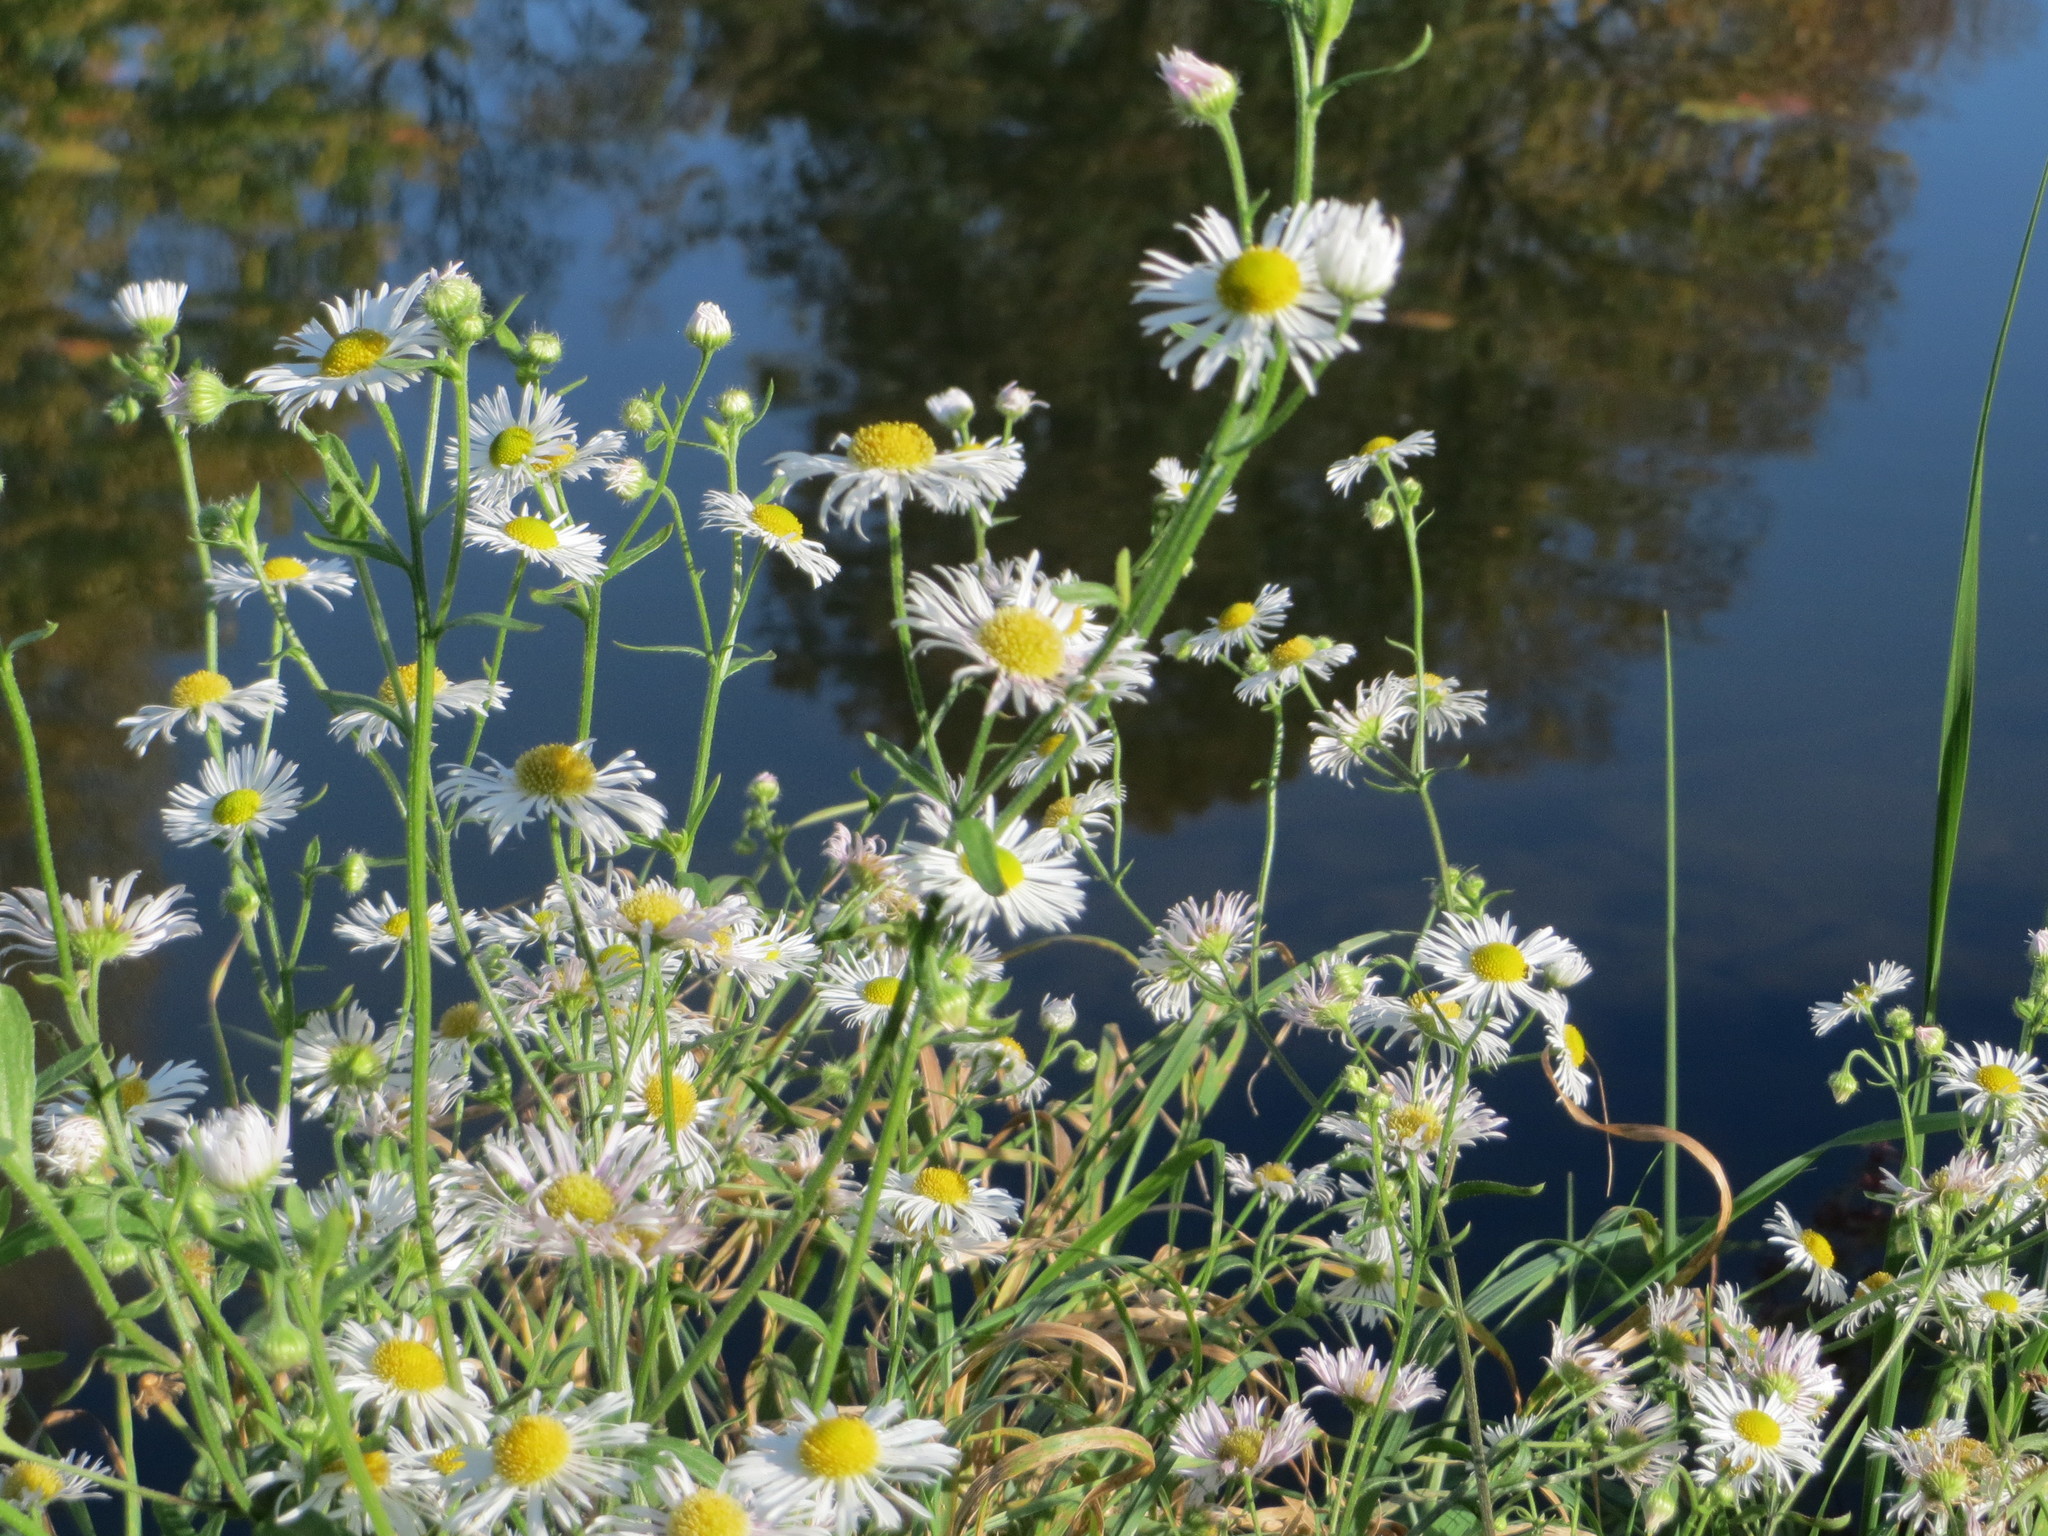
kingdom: Plantae
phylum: Tracheophyta
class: Magnoliopsida
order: Asterales
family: Asteraceae
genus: Erigeron
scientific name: Erigeron annuus
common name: Tall fleabane
